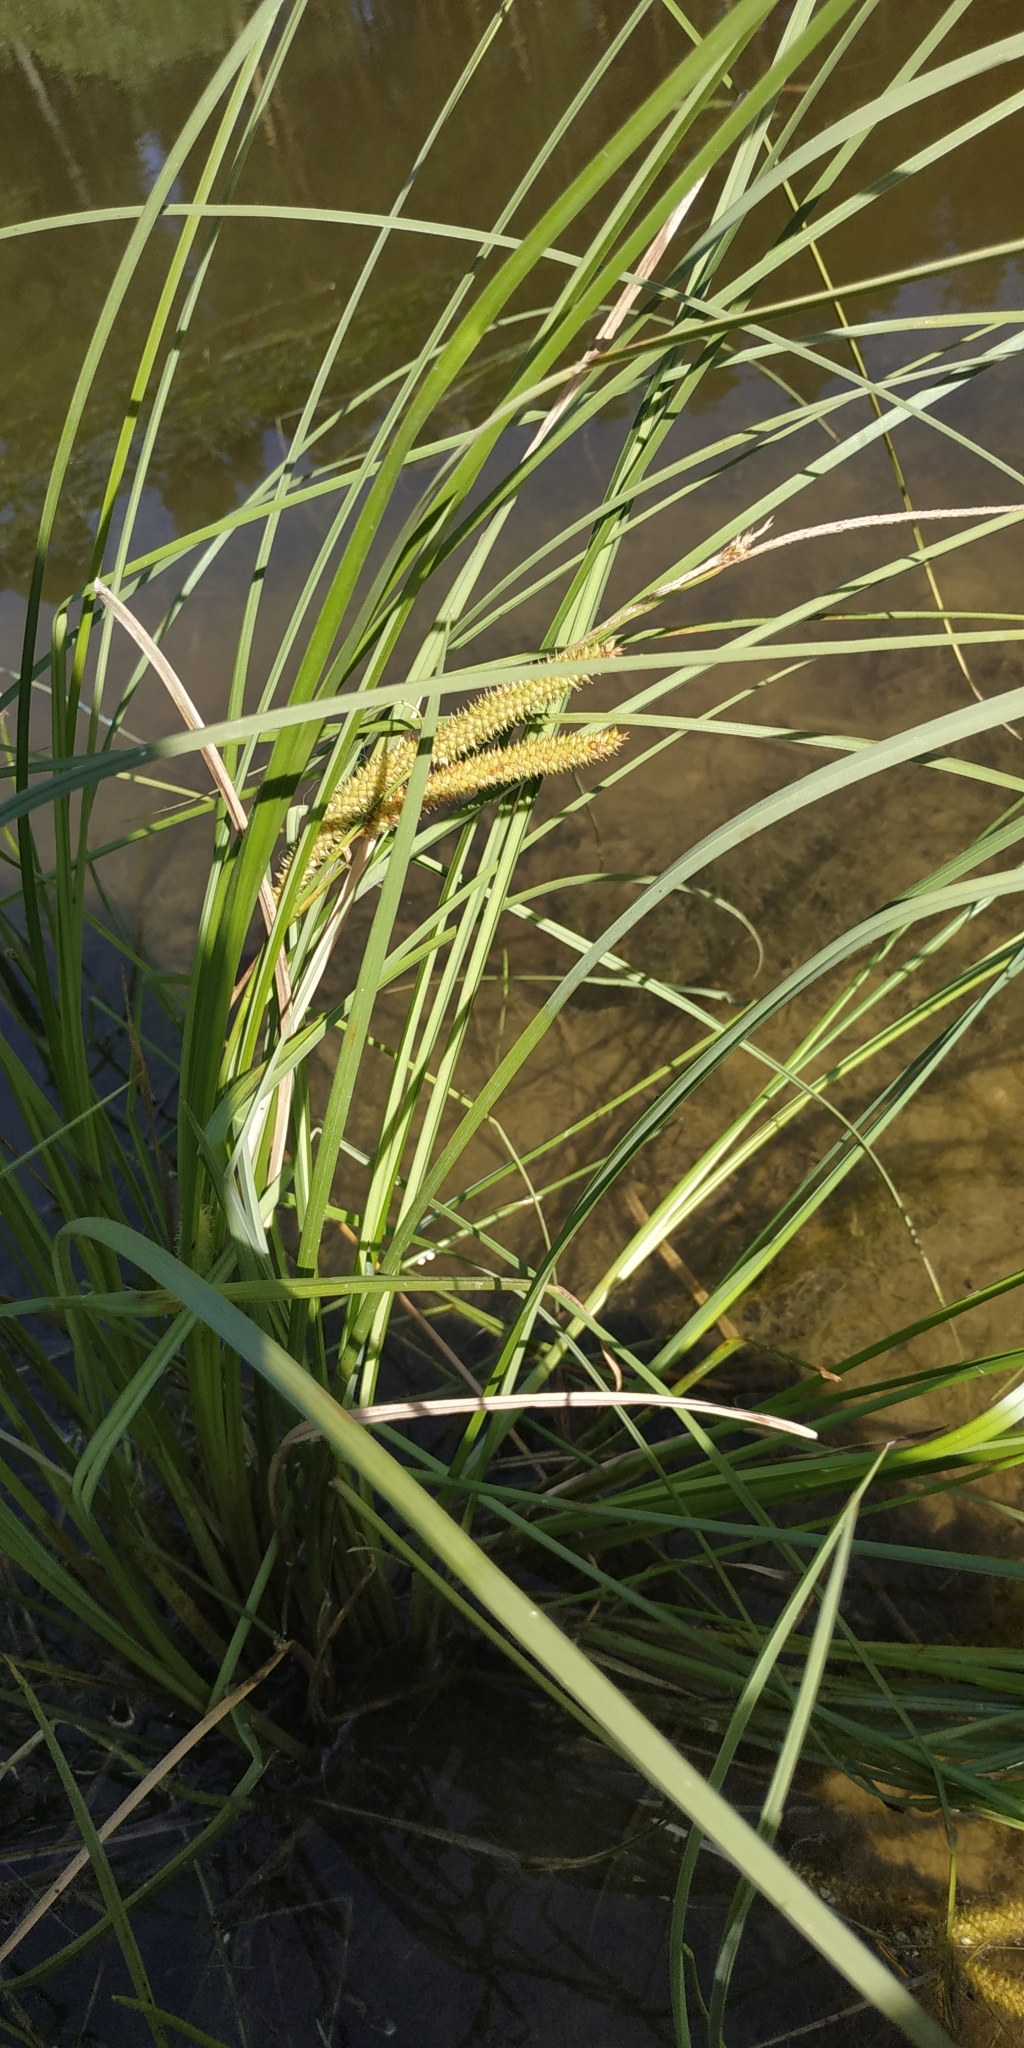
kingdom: Plantae
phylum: Tracheophyta
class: Liliopsida
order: Poales
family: Cyperaceae
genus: Carex
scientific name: Carex rostrata
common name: Bottle sedge
